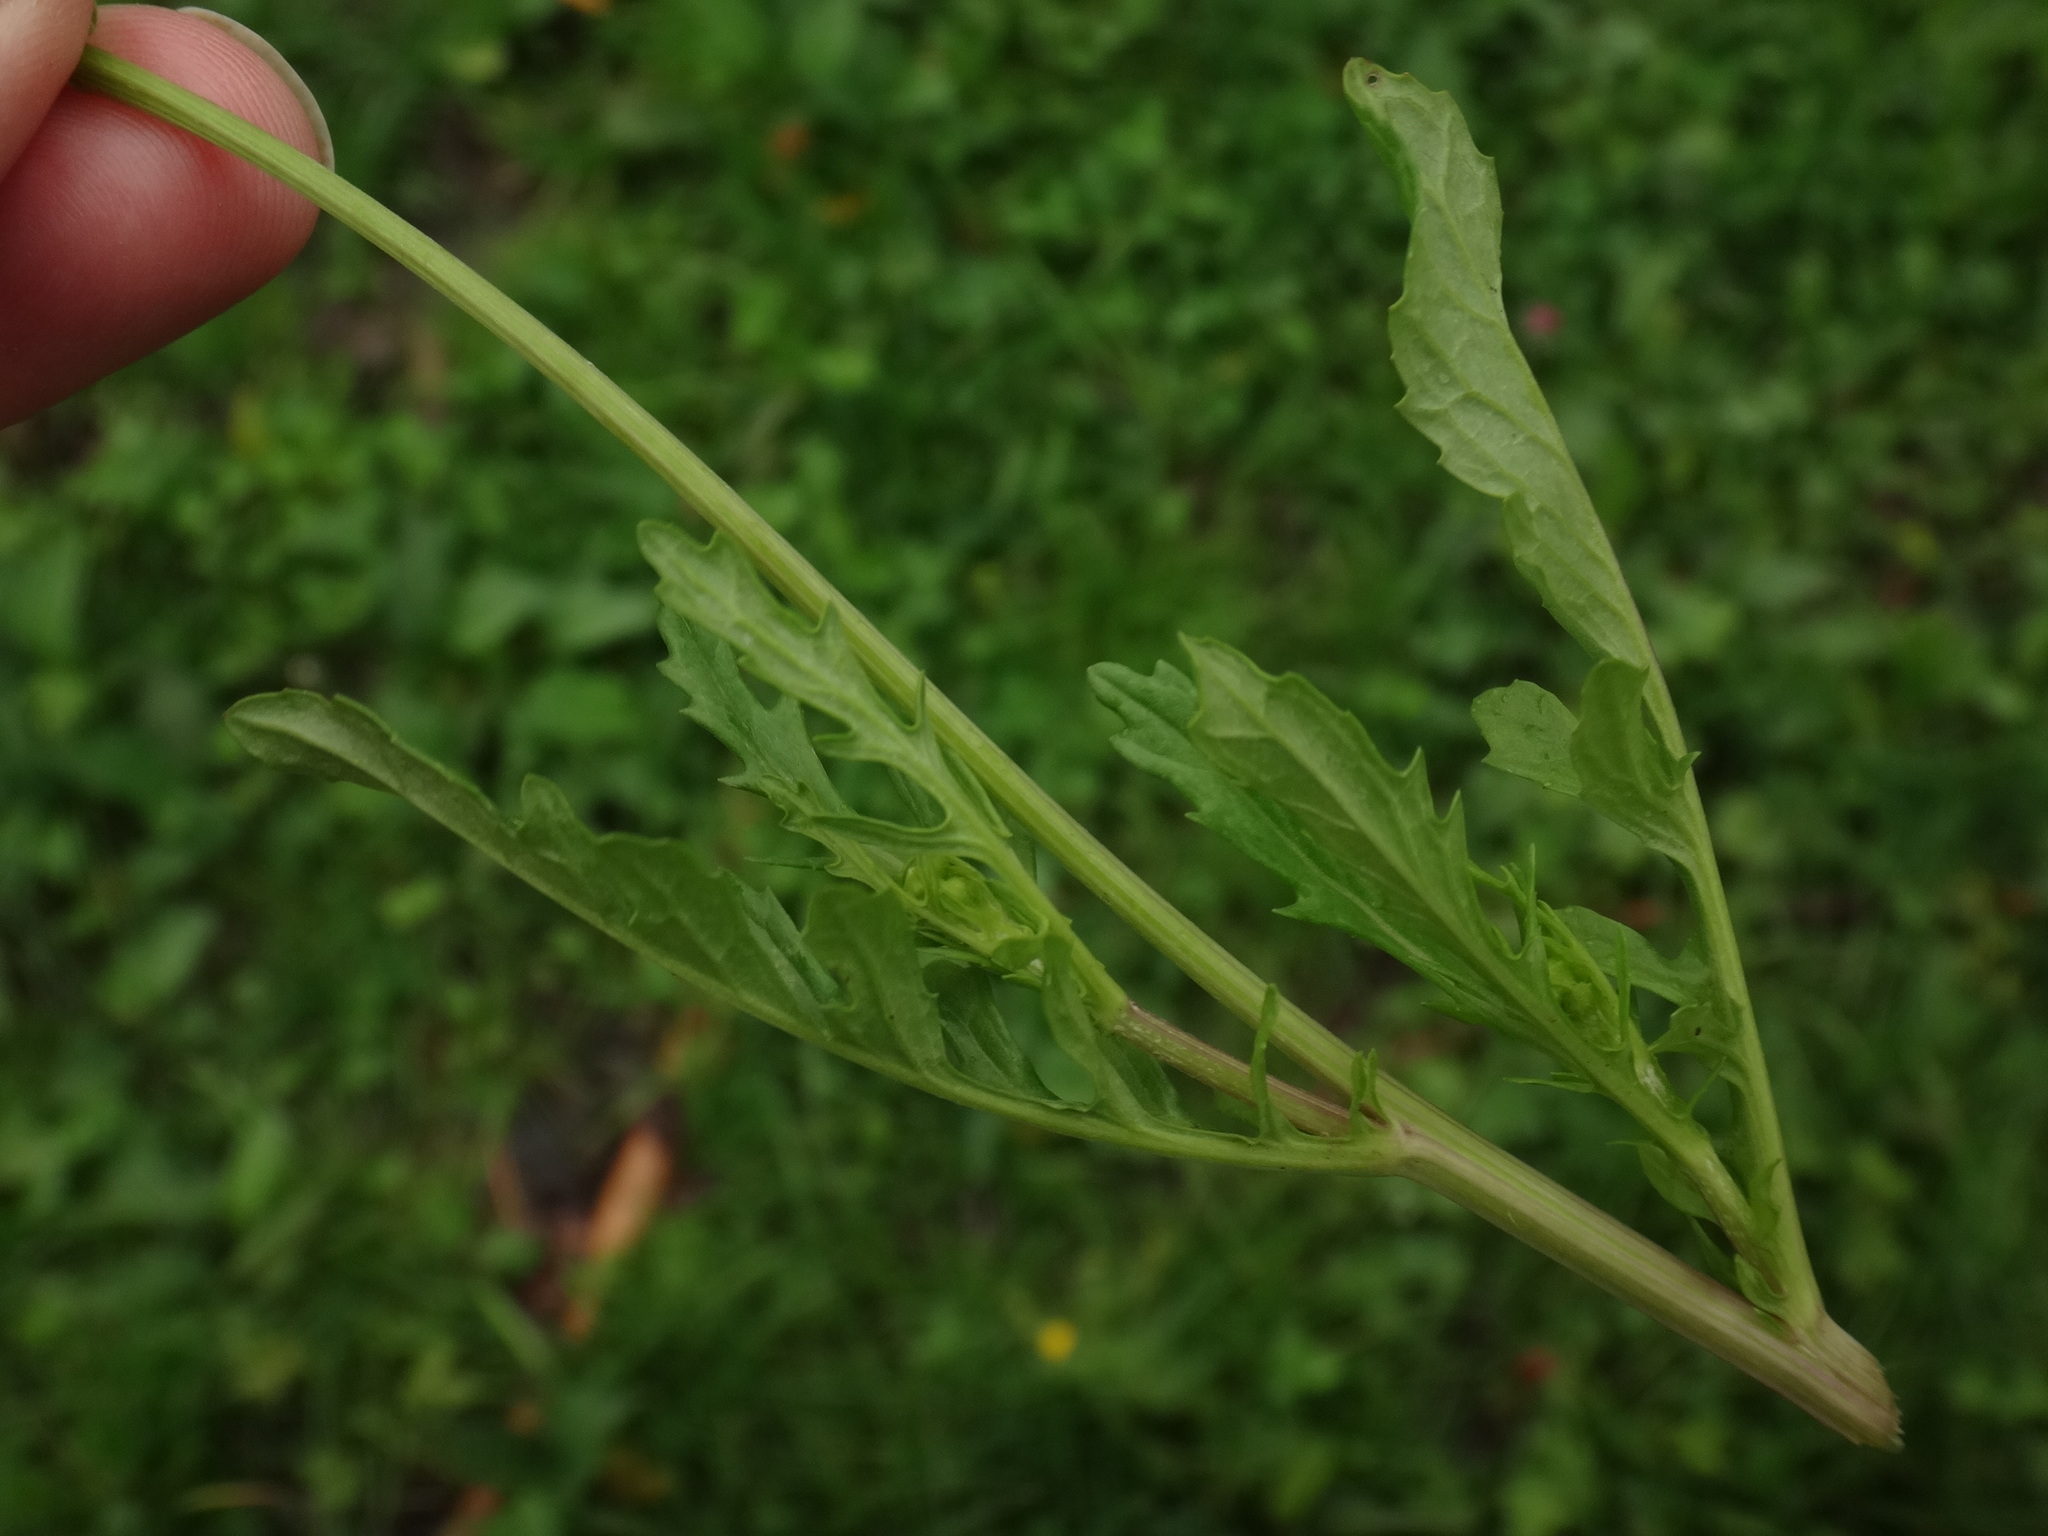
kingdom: Plantae
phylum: Tracheophyta
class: Magnoliopsida
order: Asterales
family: Asteraceae
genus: Jacobaea
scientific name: Jacobaea aquatica
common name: Water ragwort
